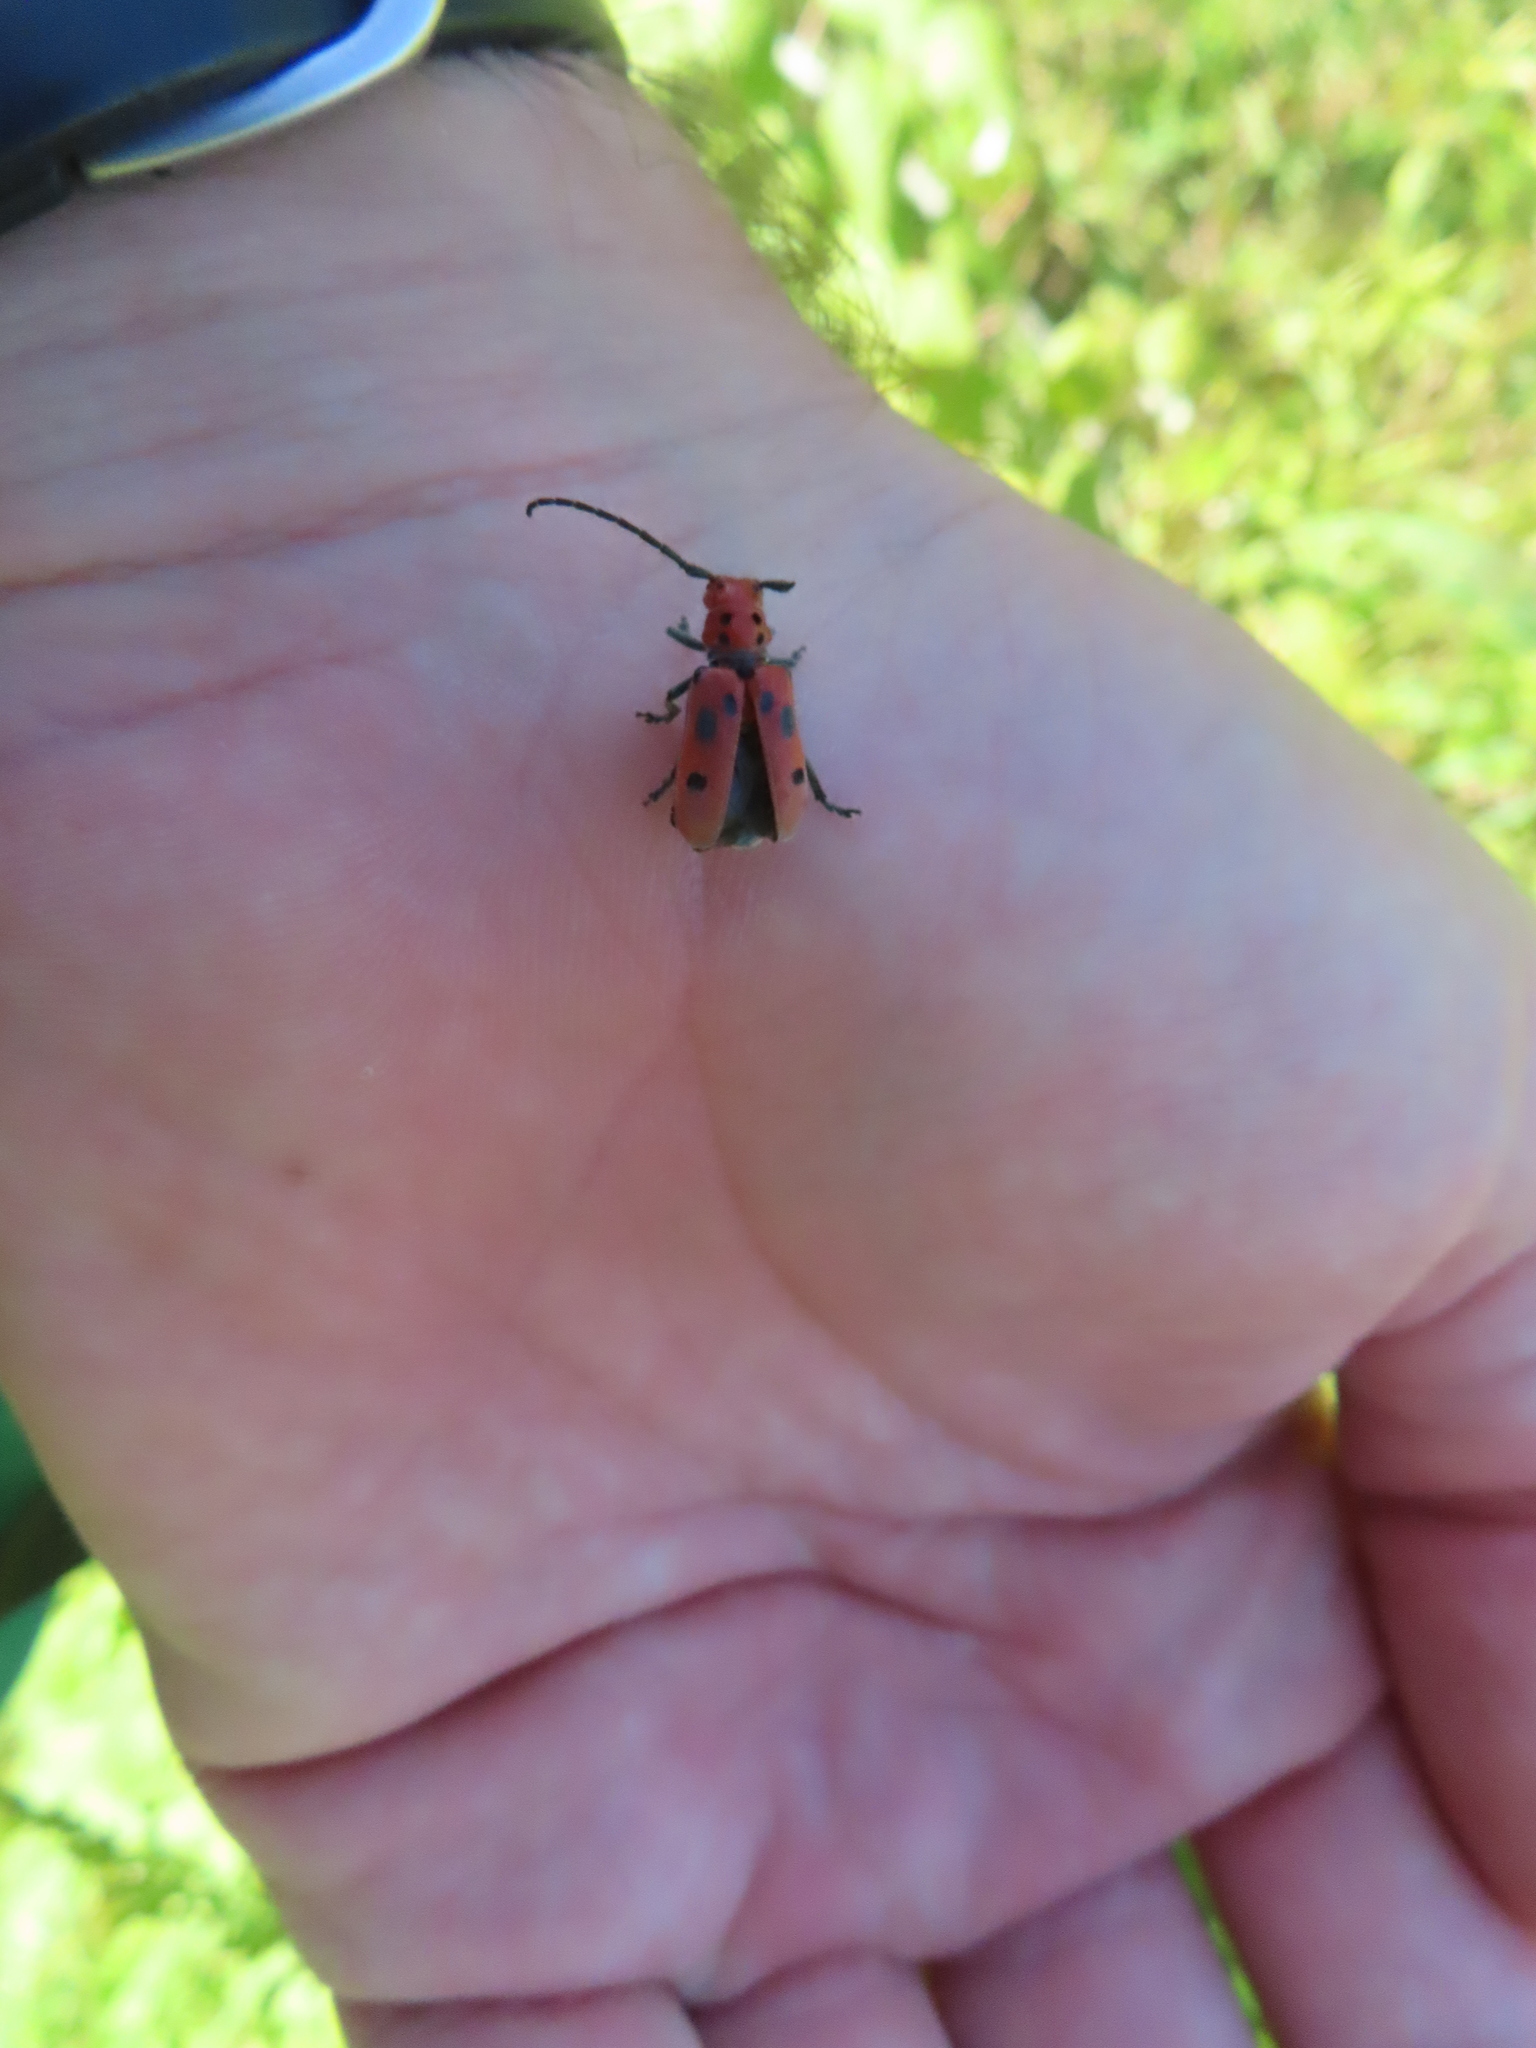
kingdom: Animalia
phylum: Arthropoda
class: Insecta
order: Coleoptera
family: Cerambycidae
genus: Tetraopes
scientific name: Tetraopes tetrophthalmus
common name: Red milkweed beetle
